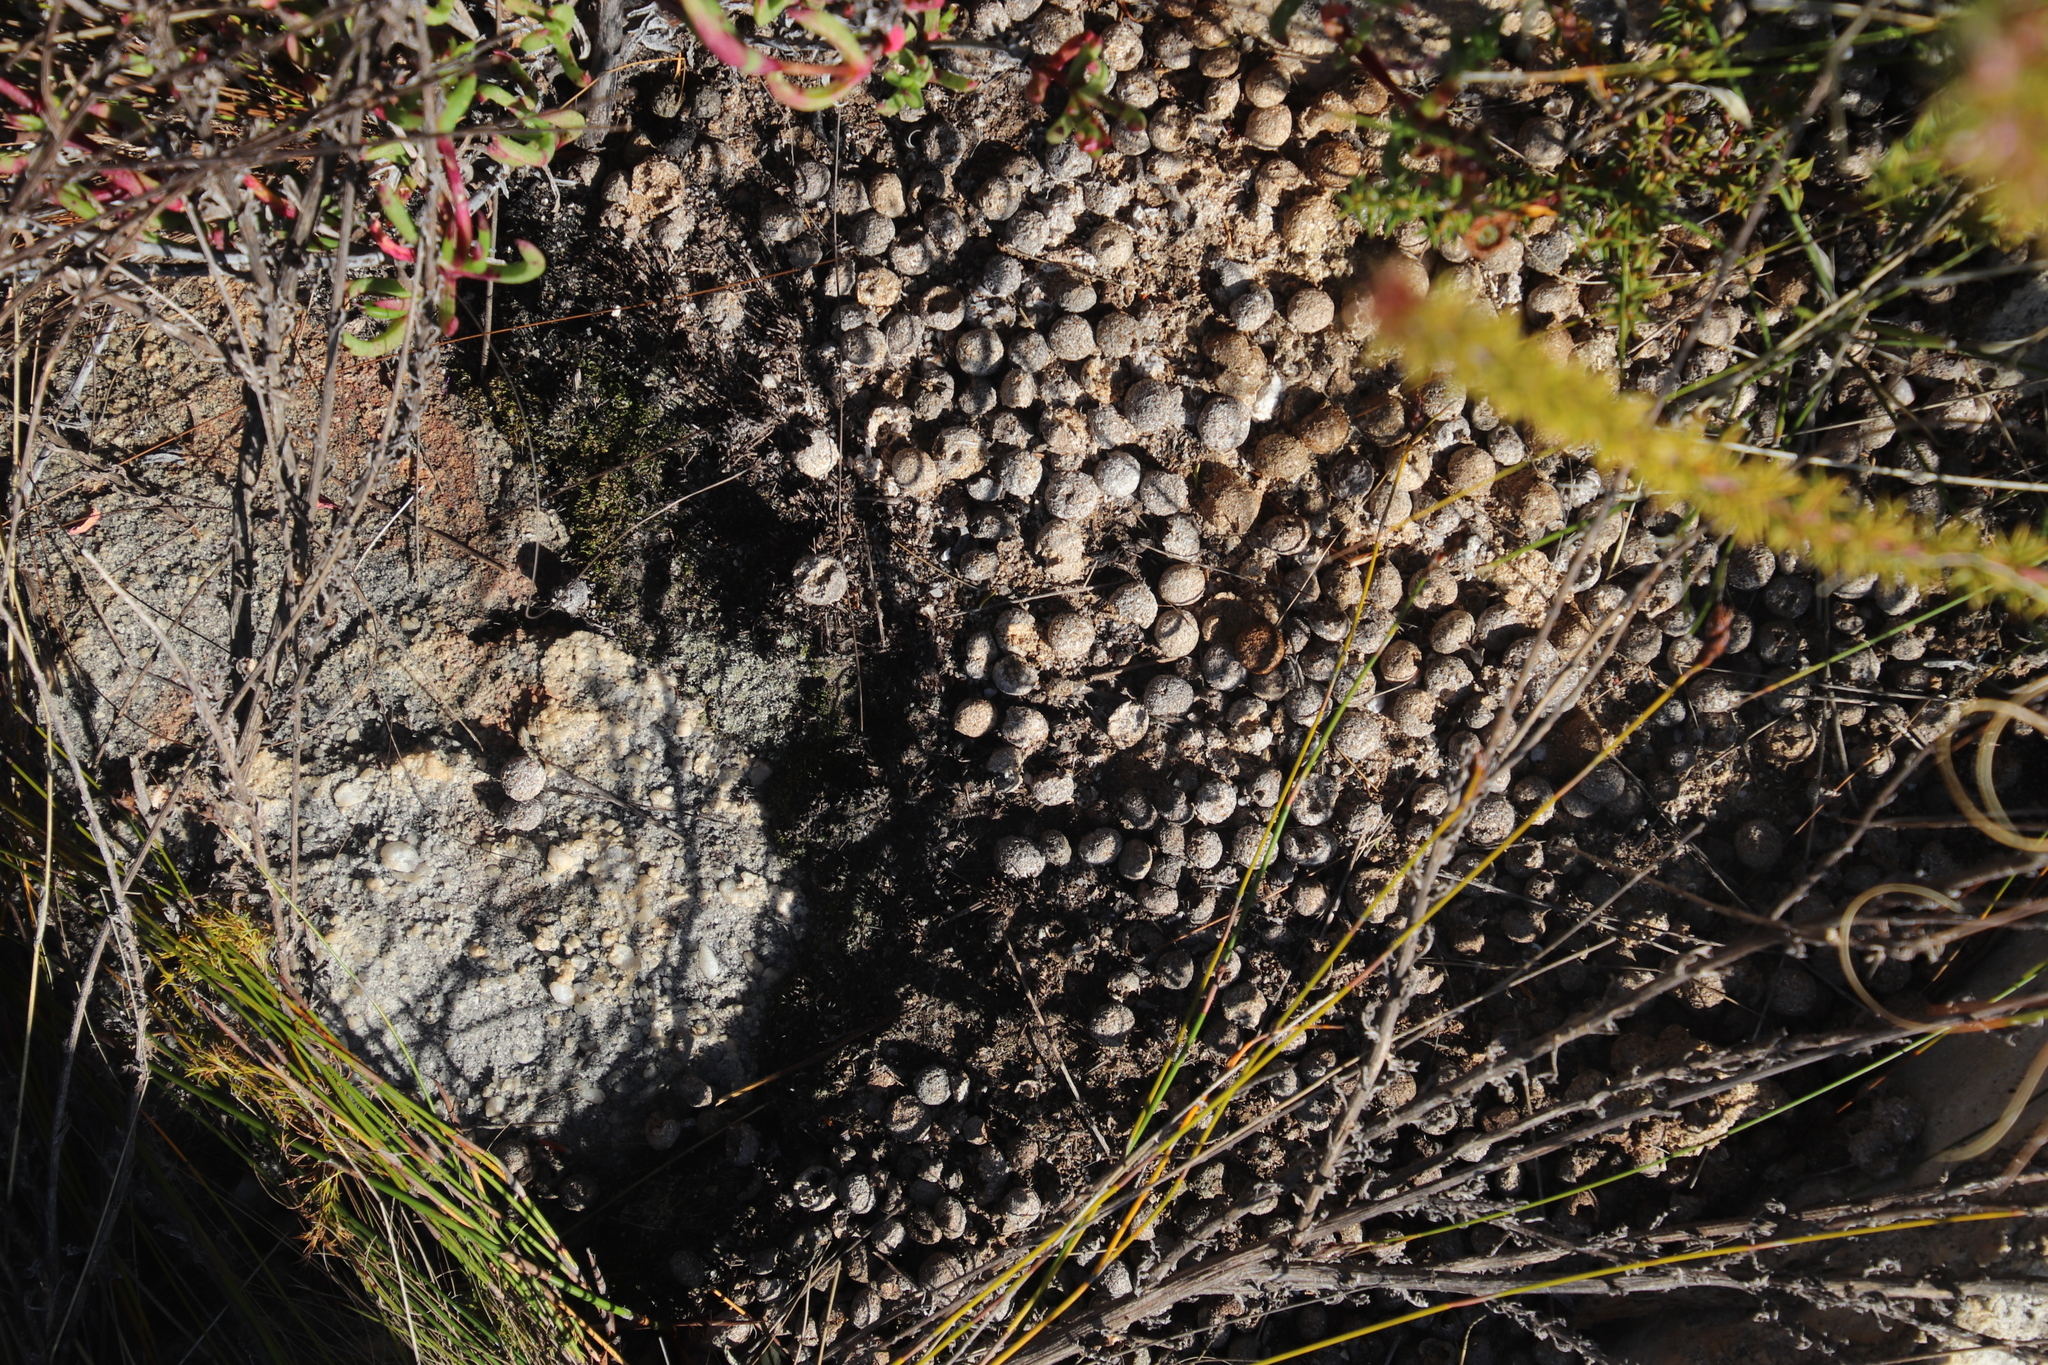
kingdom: Animalia
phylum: Chordata
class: Mammalia
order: Lagomorpha
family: Leporidae
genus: Pronolagus
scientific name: Pronolagus saundersiae
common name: Hewitt's red rock hare
